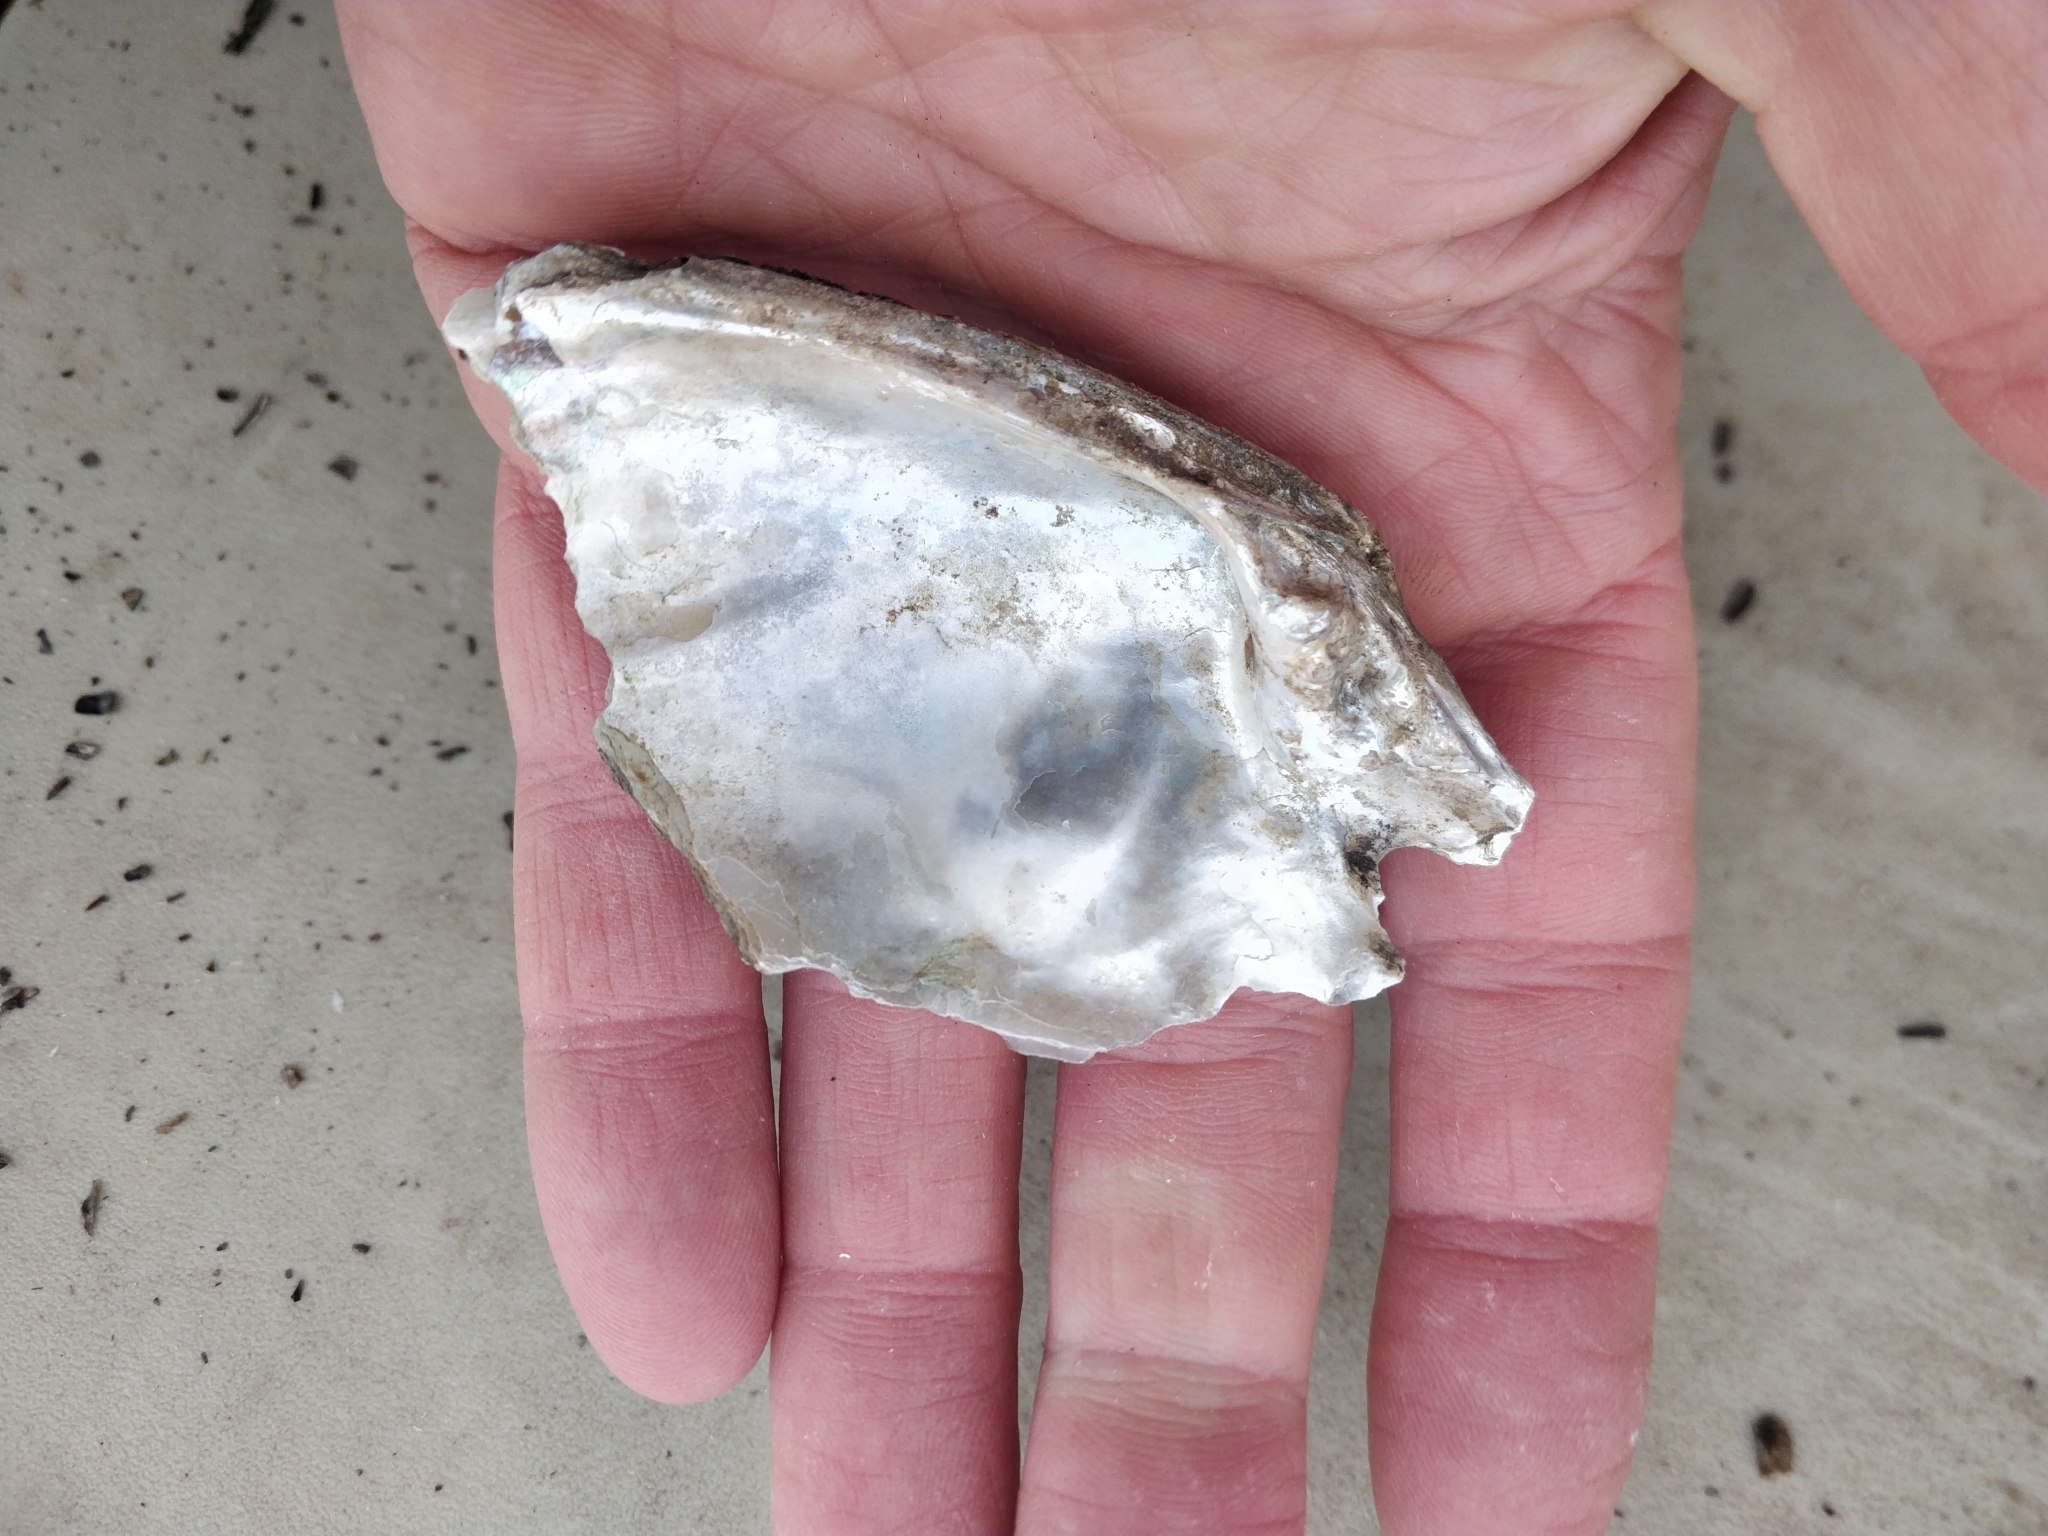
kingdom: Animalia
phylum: Mollusca
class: Bivalvia
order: Unionida
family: Unionidae
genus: Lasmigona
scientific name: Lasmigona complanata
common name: White heelsplitter
